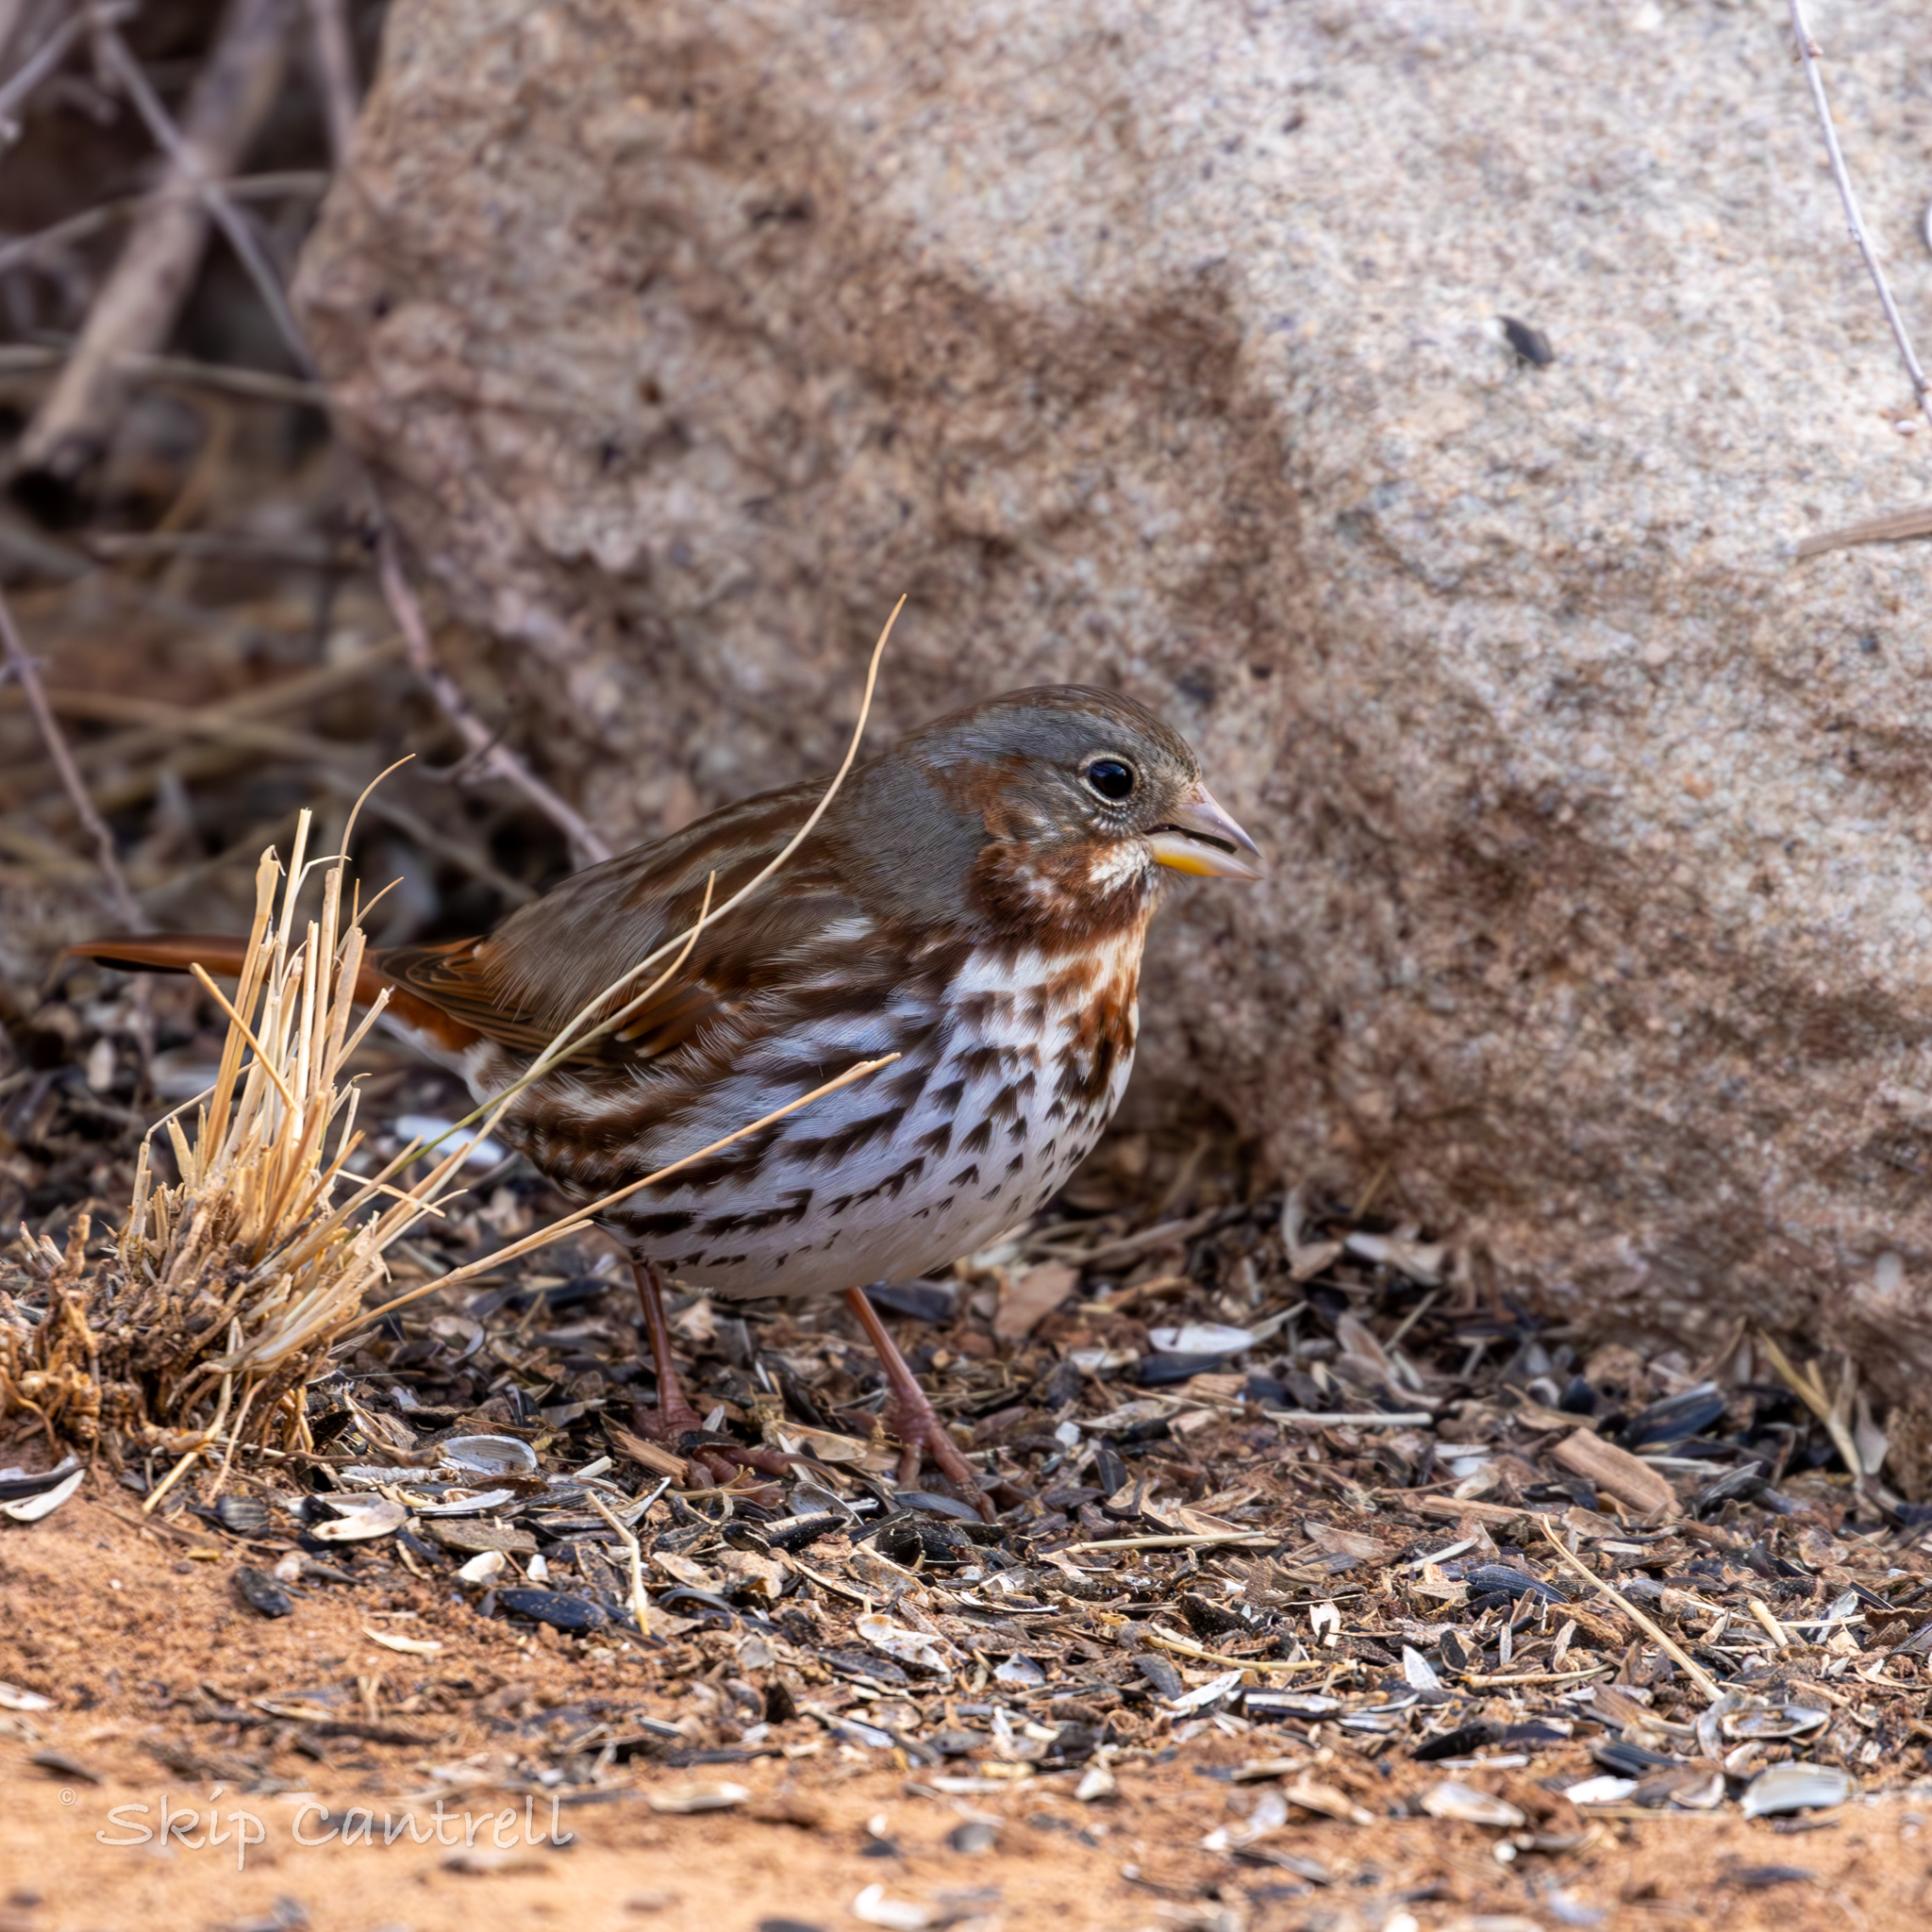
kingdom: Animalia
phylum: Chordata
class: Aves
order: Passeriformes
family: Passerellidae
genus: Passerella
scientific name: Passerella iliaca
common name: Fox sparrow
